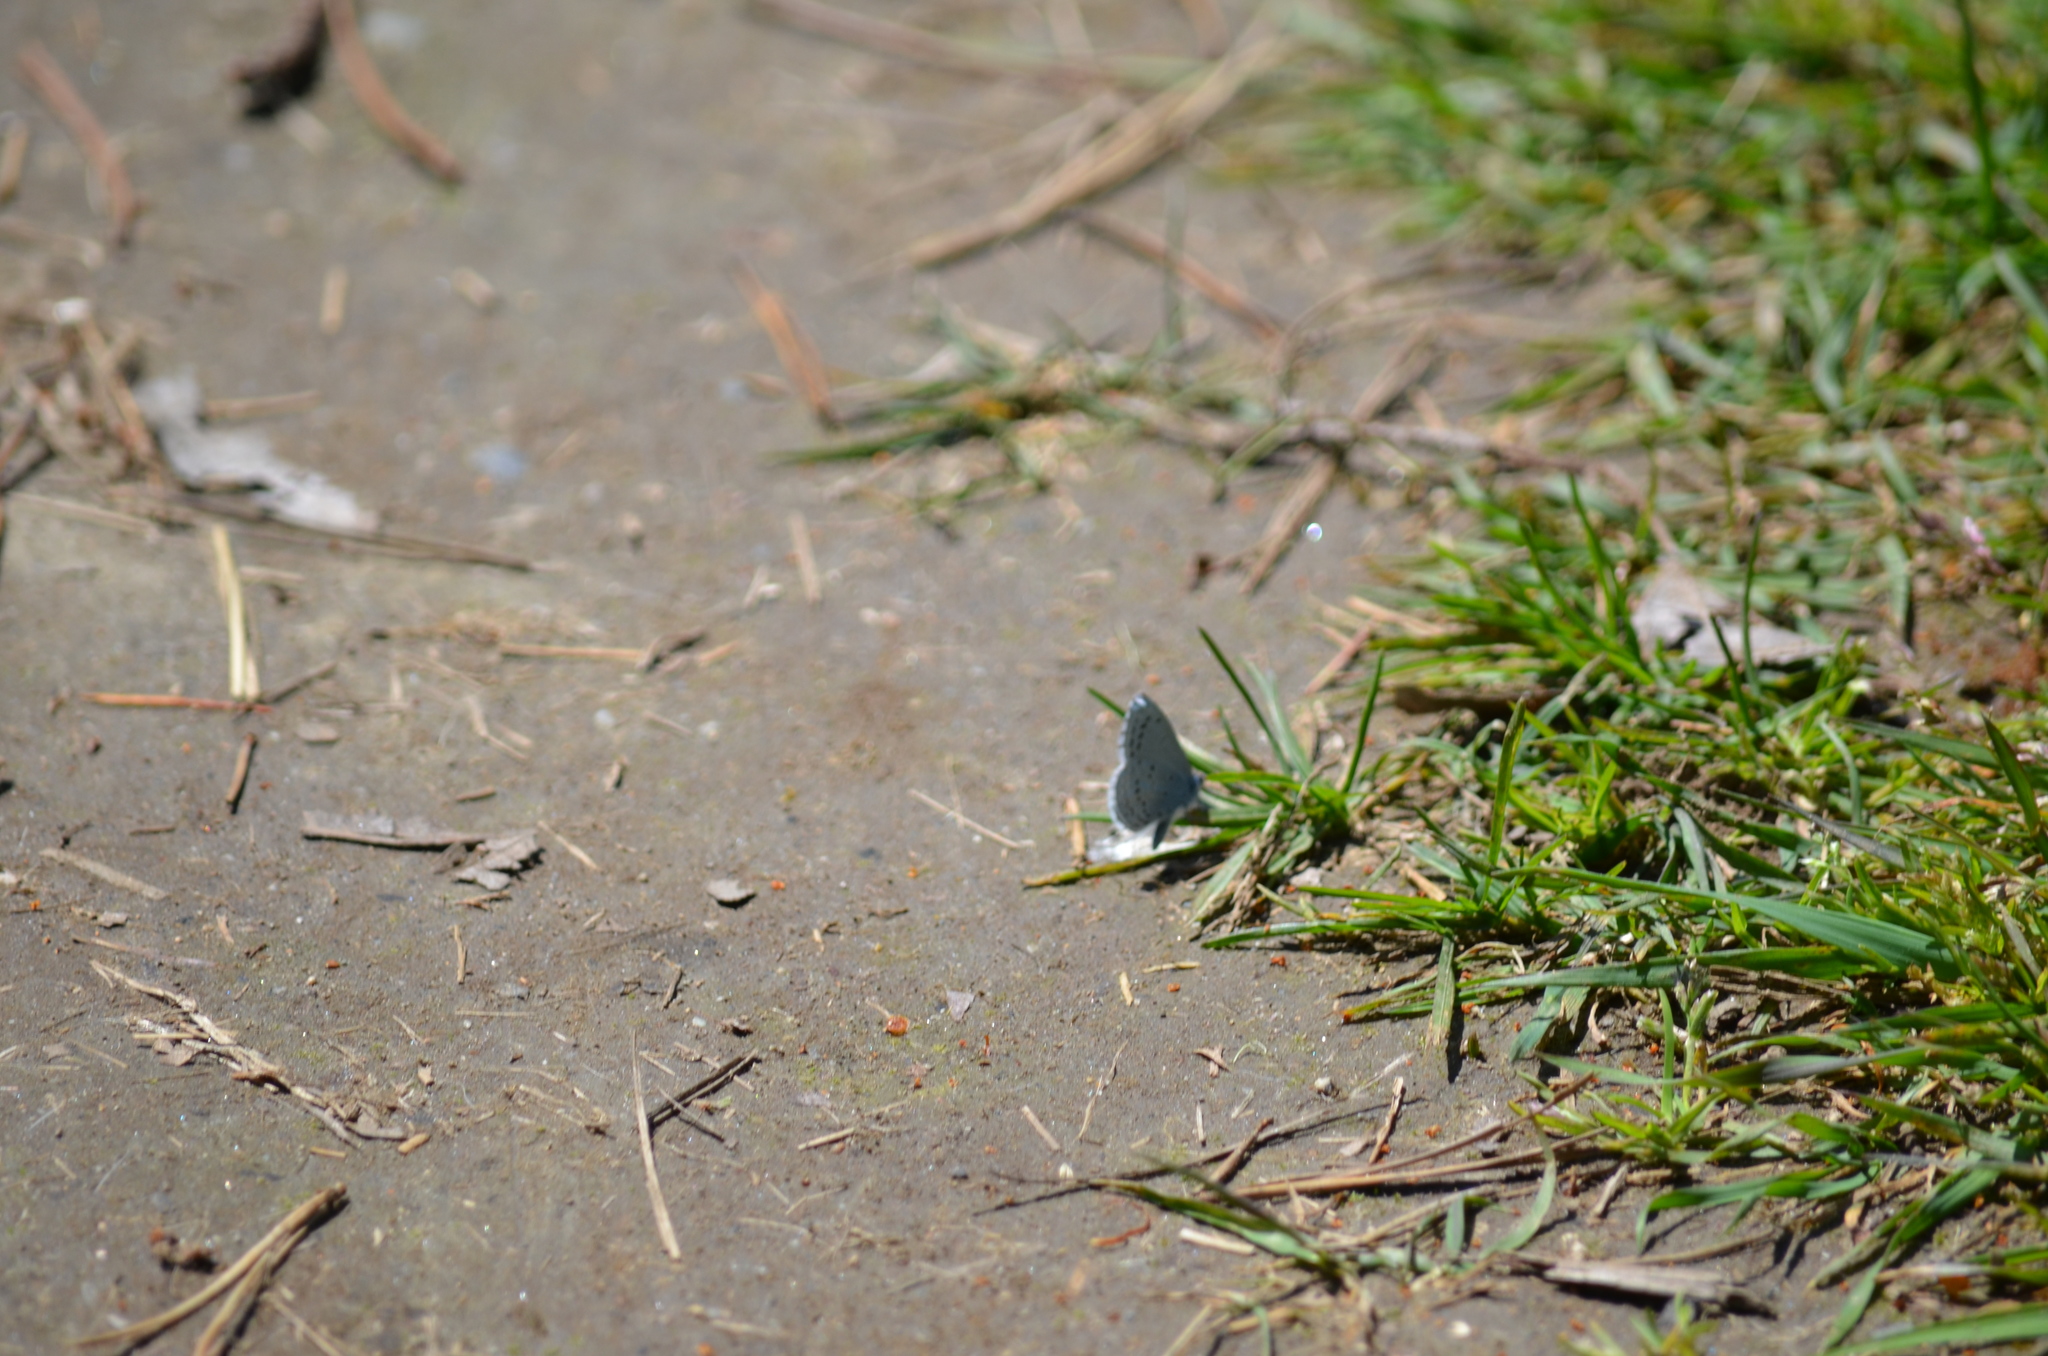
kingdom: Animalia
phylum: Arthropoda
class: Insecta
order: Lepidoptera
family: Lycaenidae
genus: Celastrina
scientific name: Celastrina ladon
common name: Spring azure
